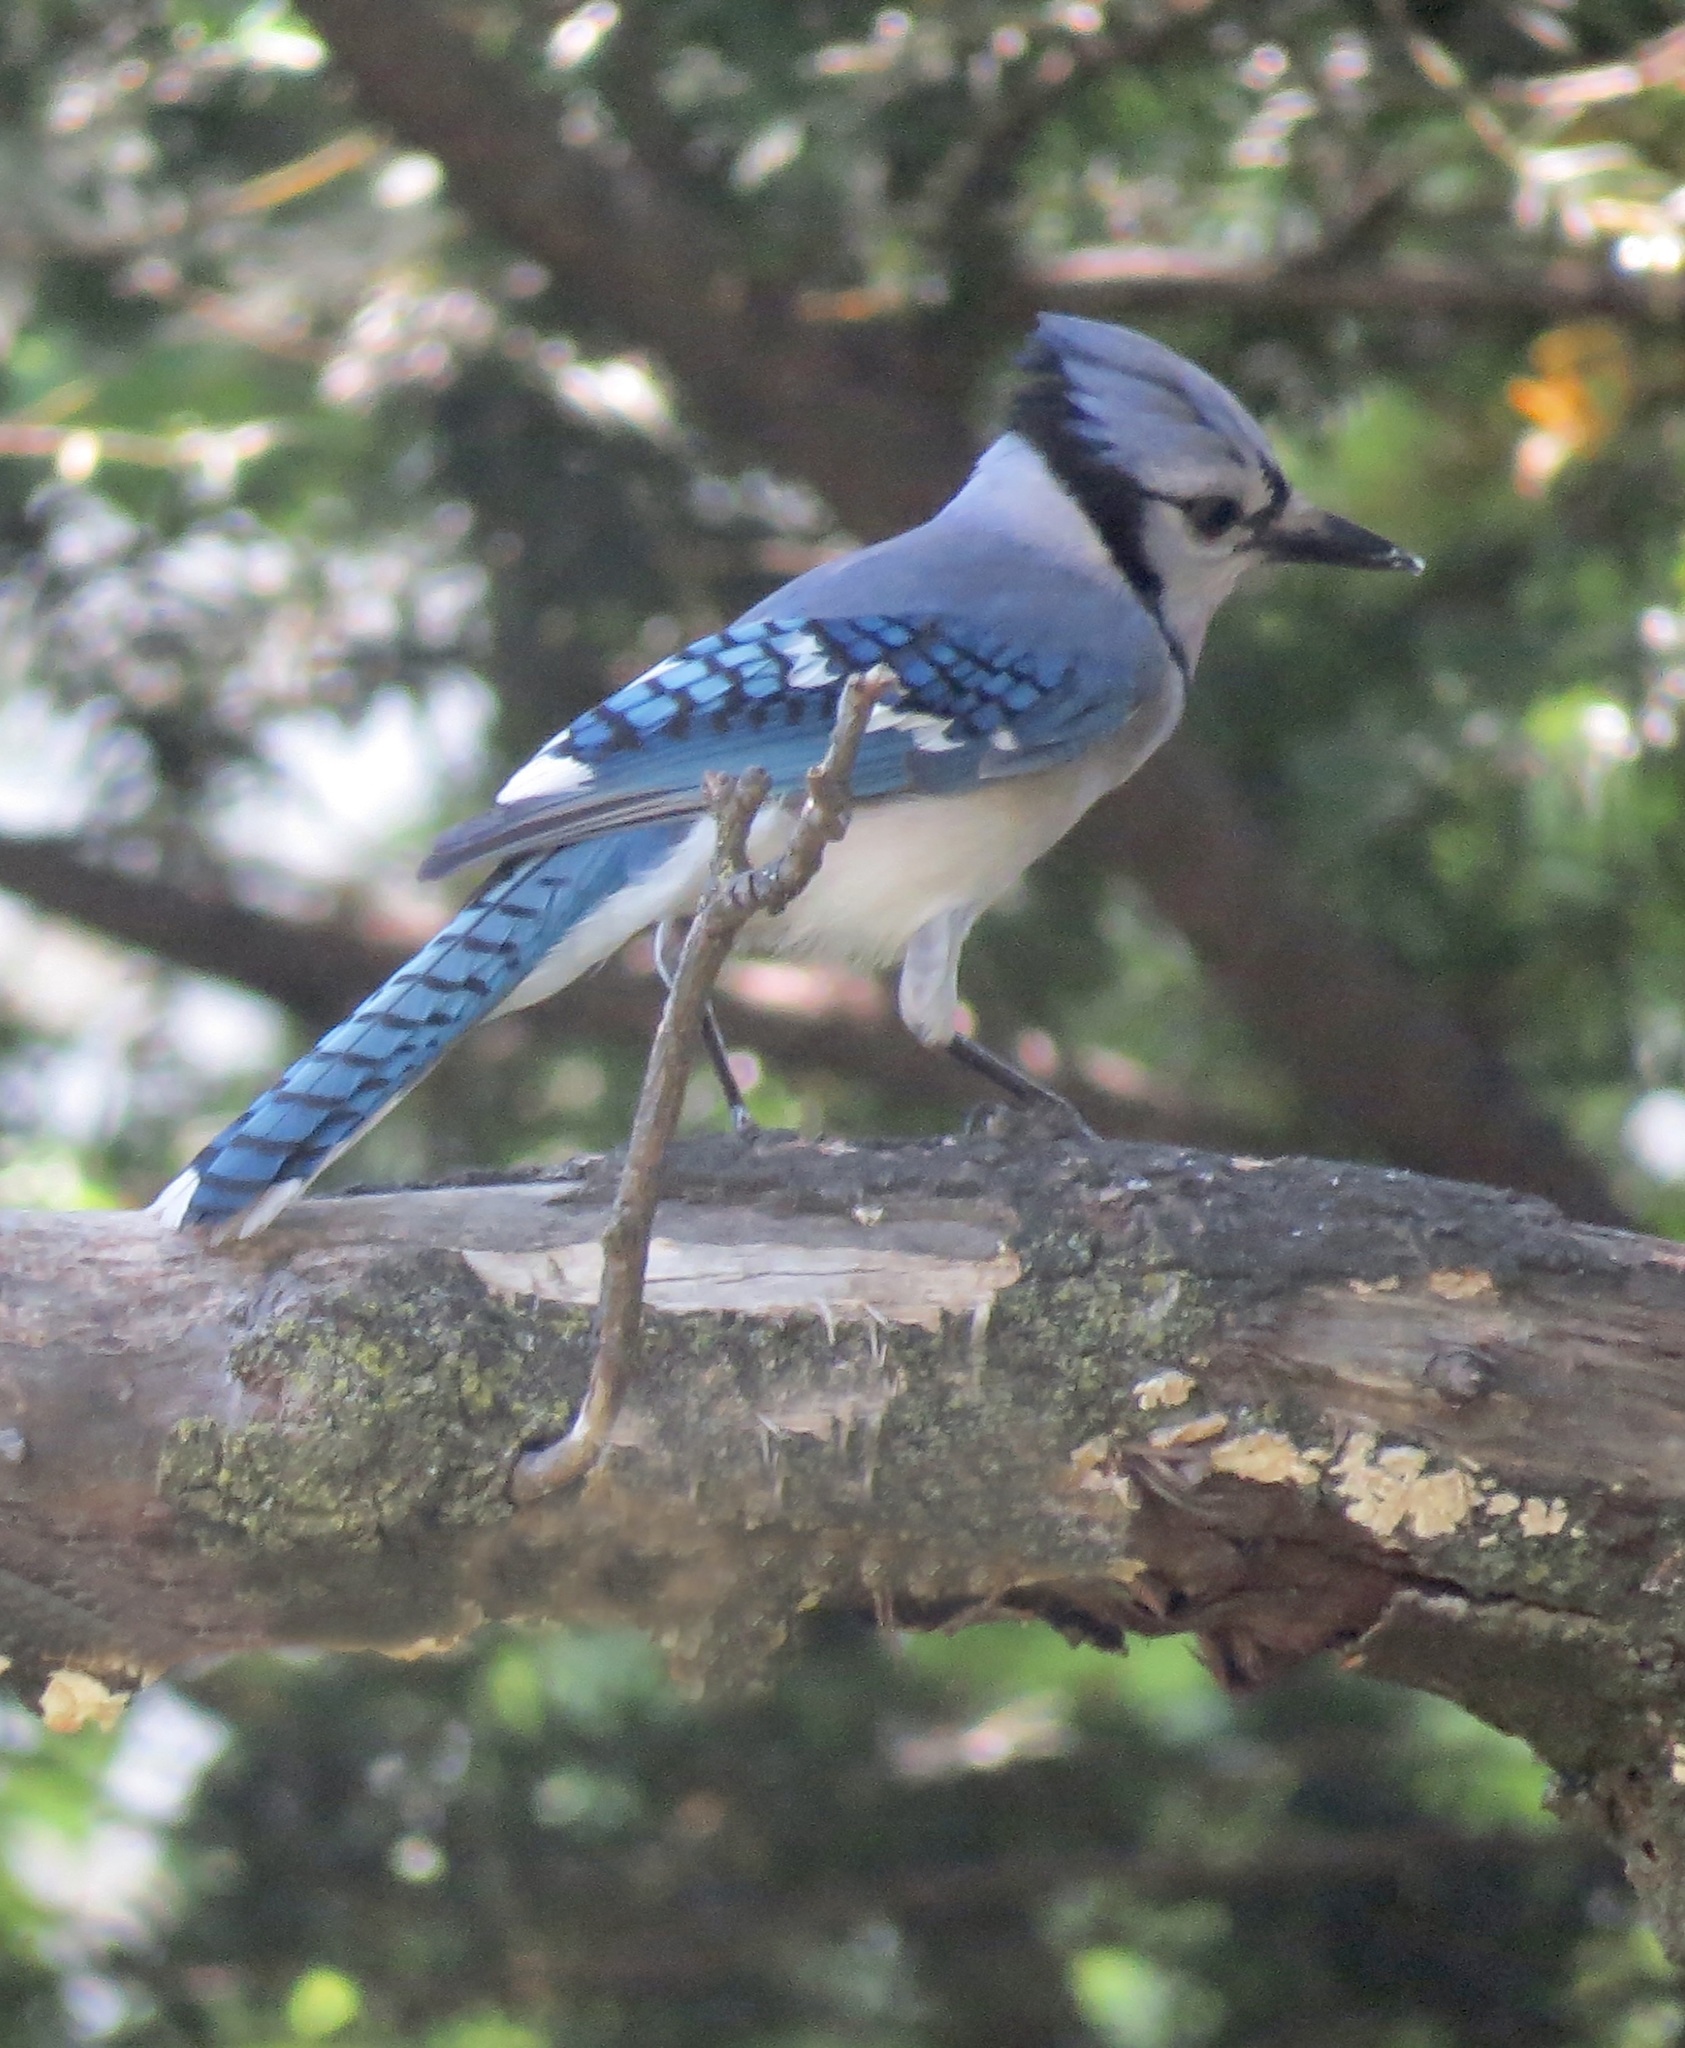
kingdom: Animalia
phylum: Chordata
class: Aves
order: Passeriformes
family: Corvidae
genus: Cyanocitta
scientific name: Cyanocitta cristata
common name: Blue jay
